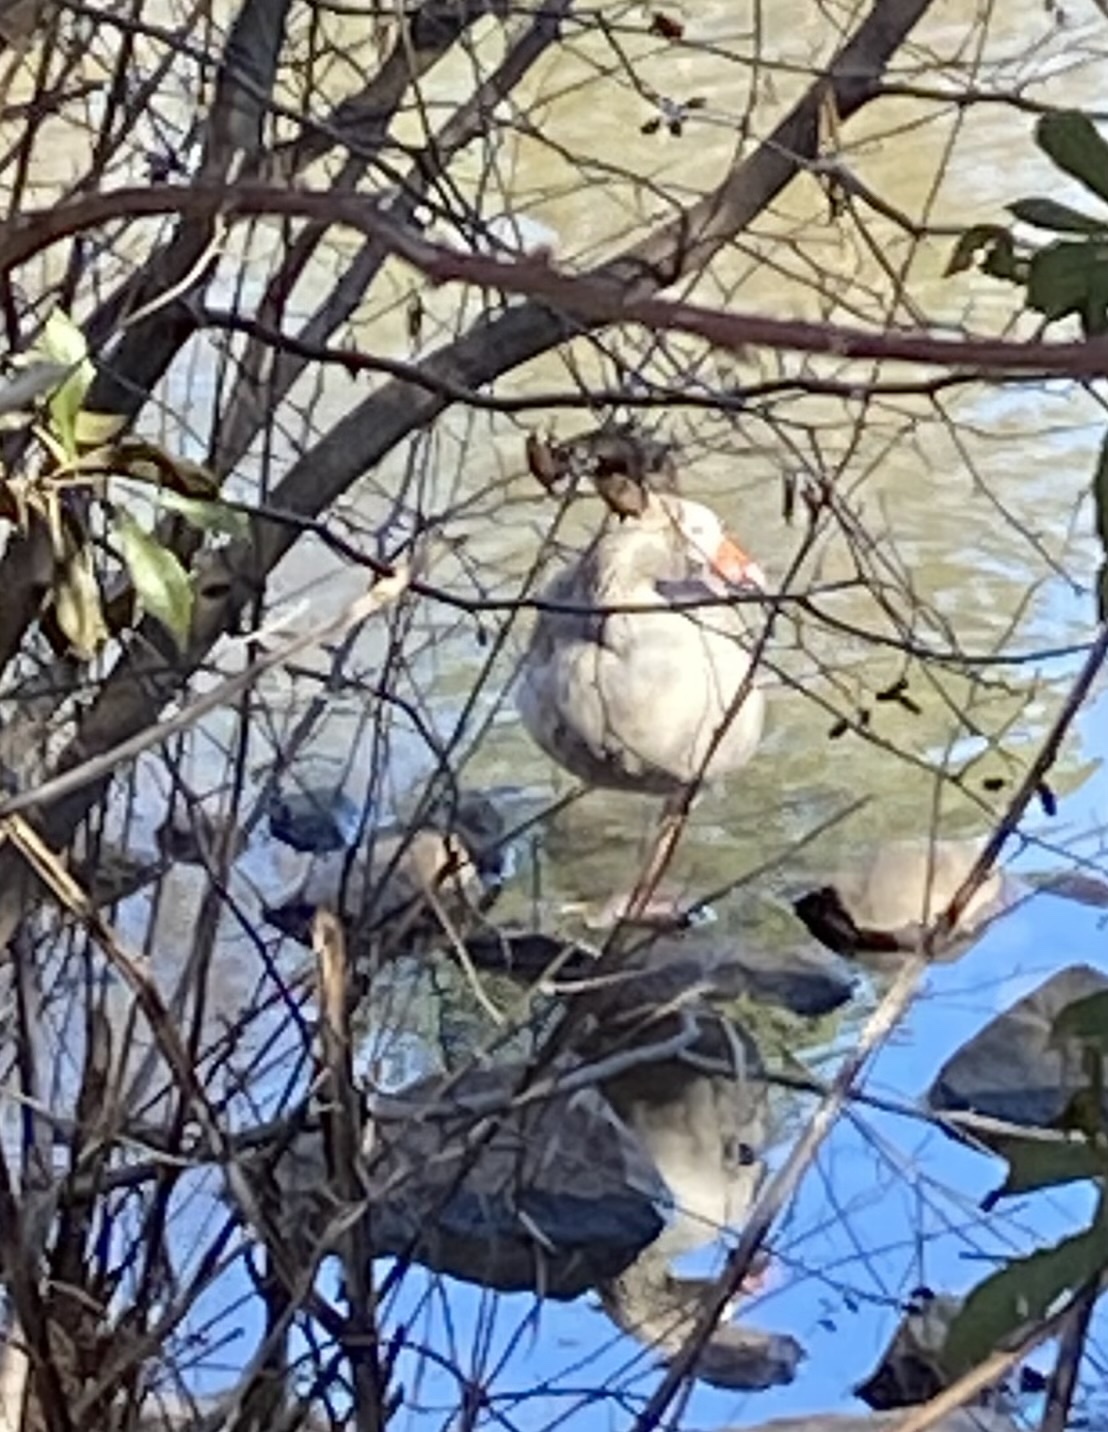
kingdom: Animalia
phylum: Chordata
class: Aves
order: Anseriformes
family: Anatidae
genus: Anser
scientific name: Anser anser
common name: Greylag goose
